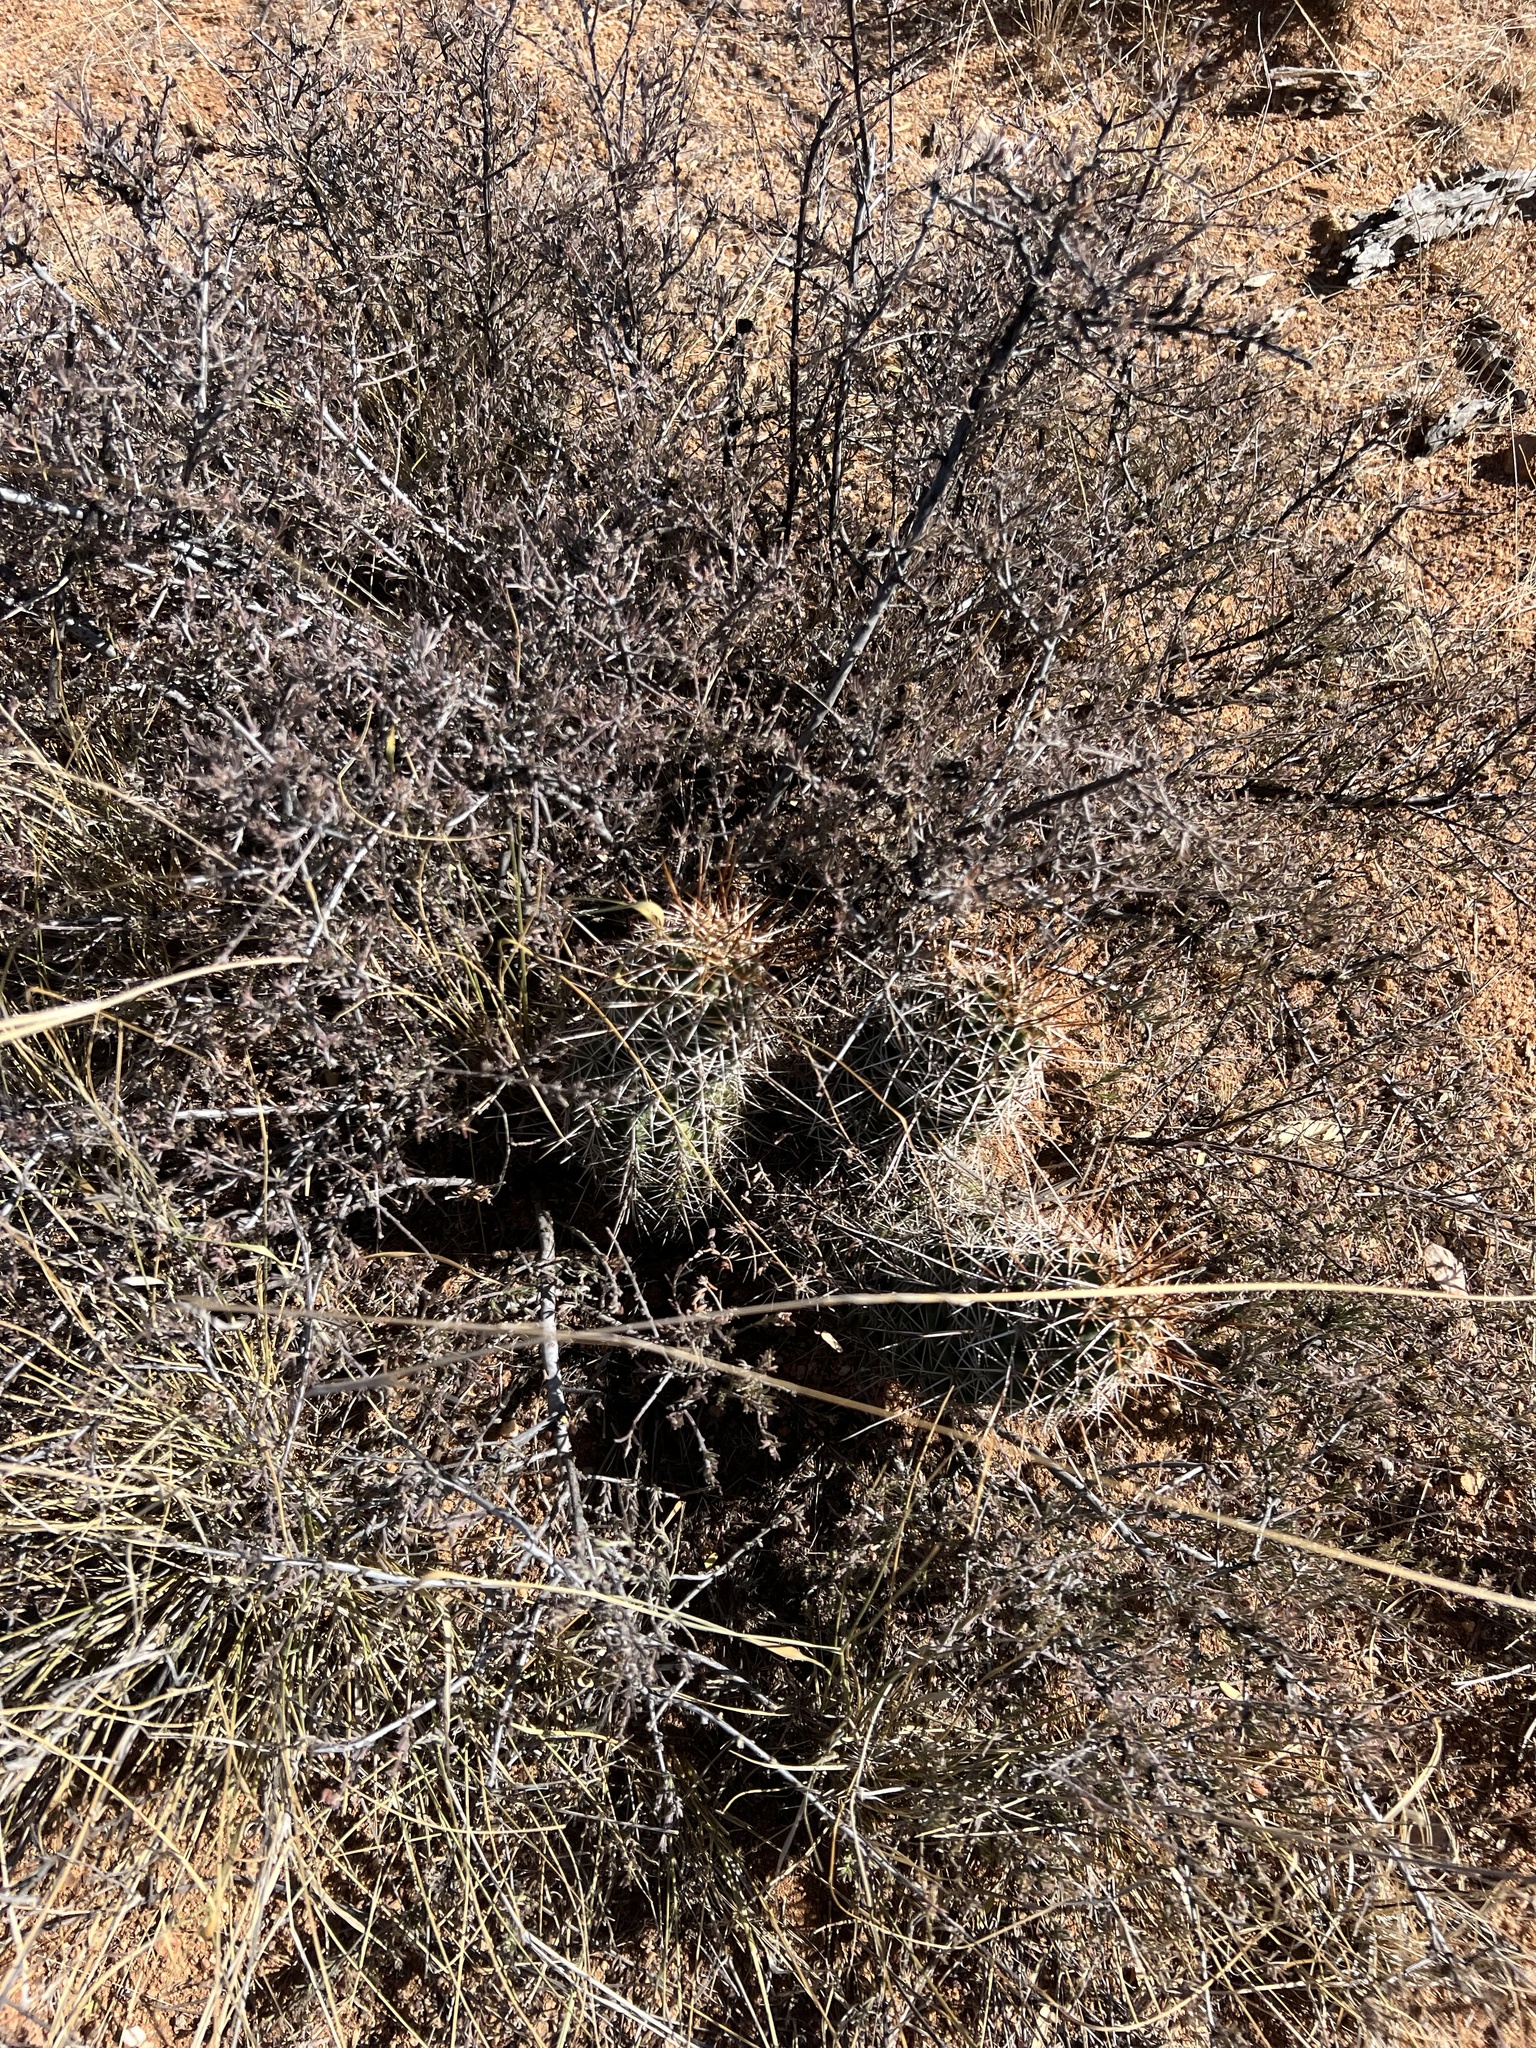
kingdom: Plantae
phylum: Tracheophyta
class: Magnoliopsida
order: Caryophyllales
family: Cactaceae
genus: Echinocereus
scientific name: Echinocereus fasciculatus
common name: Bundle hedgehog
